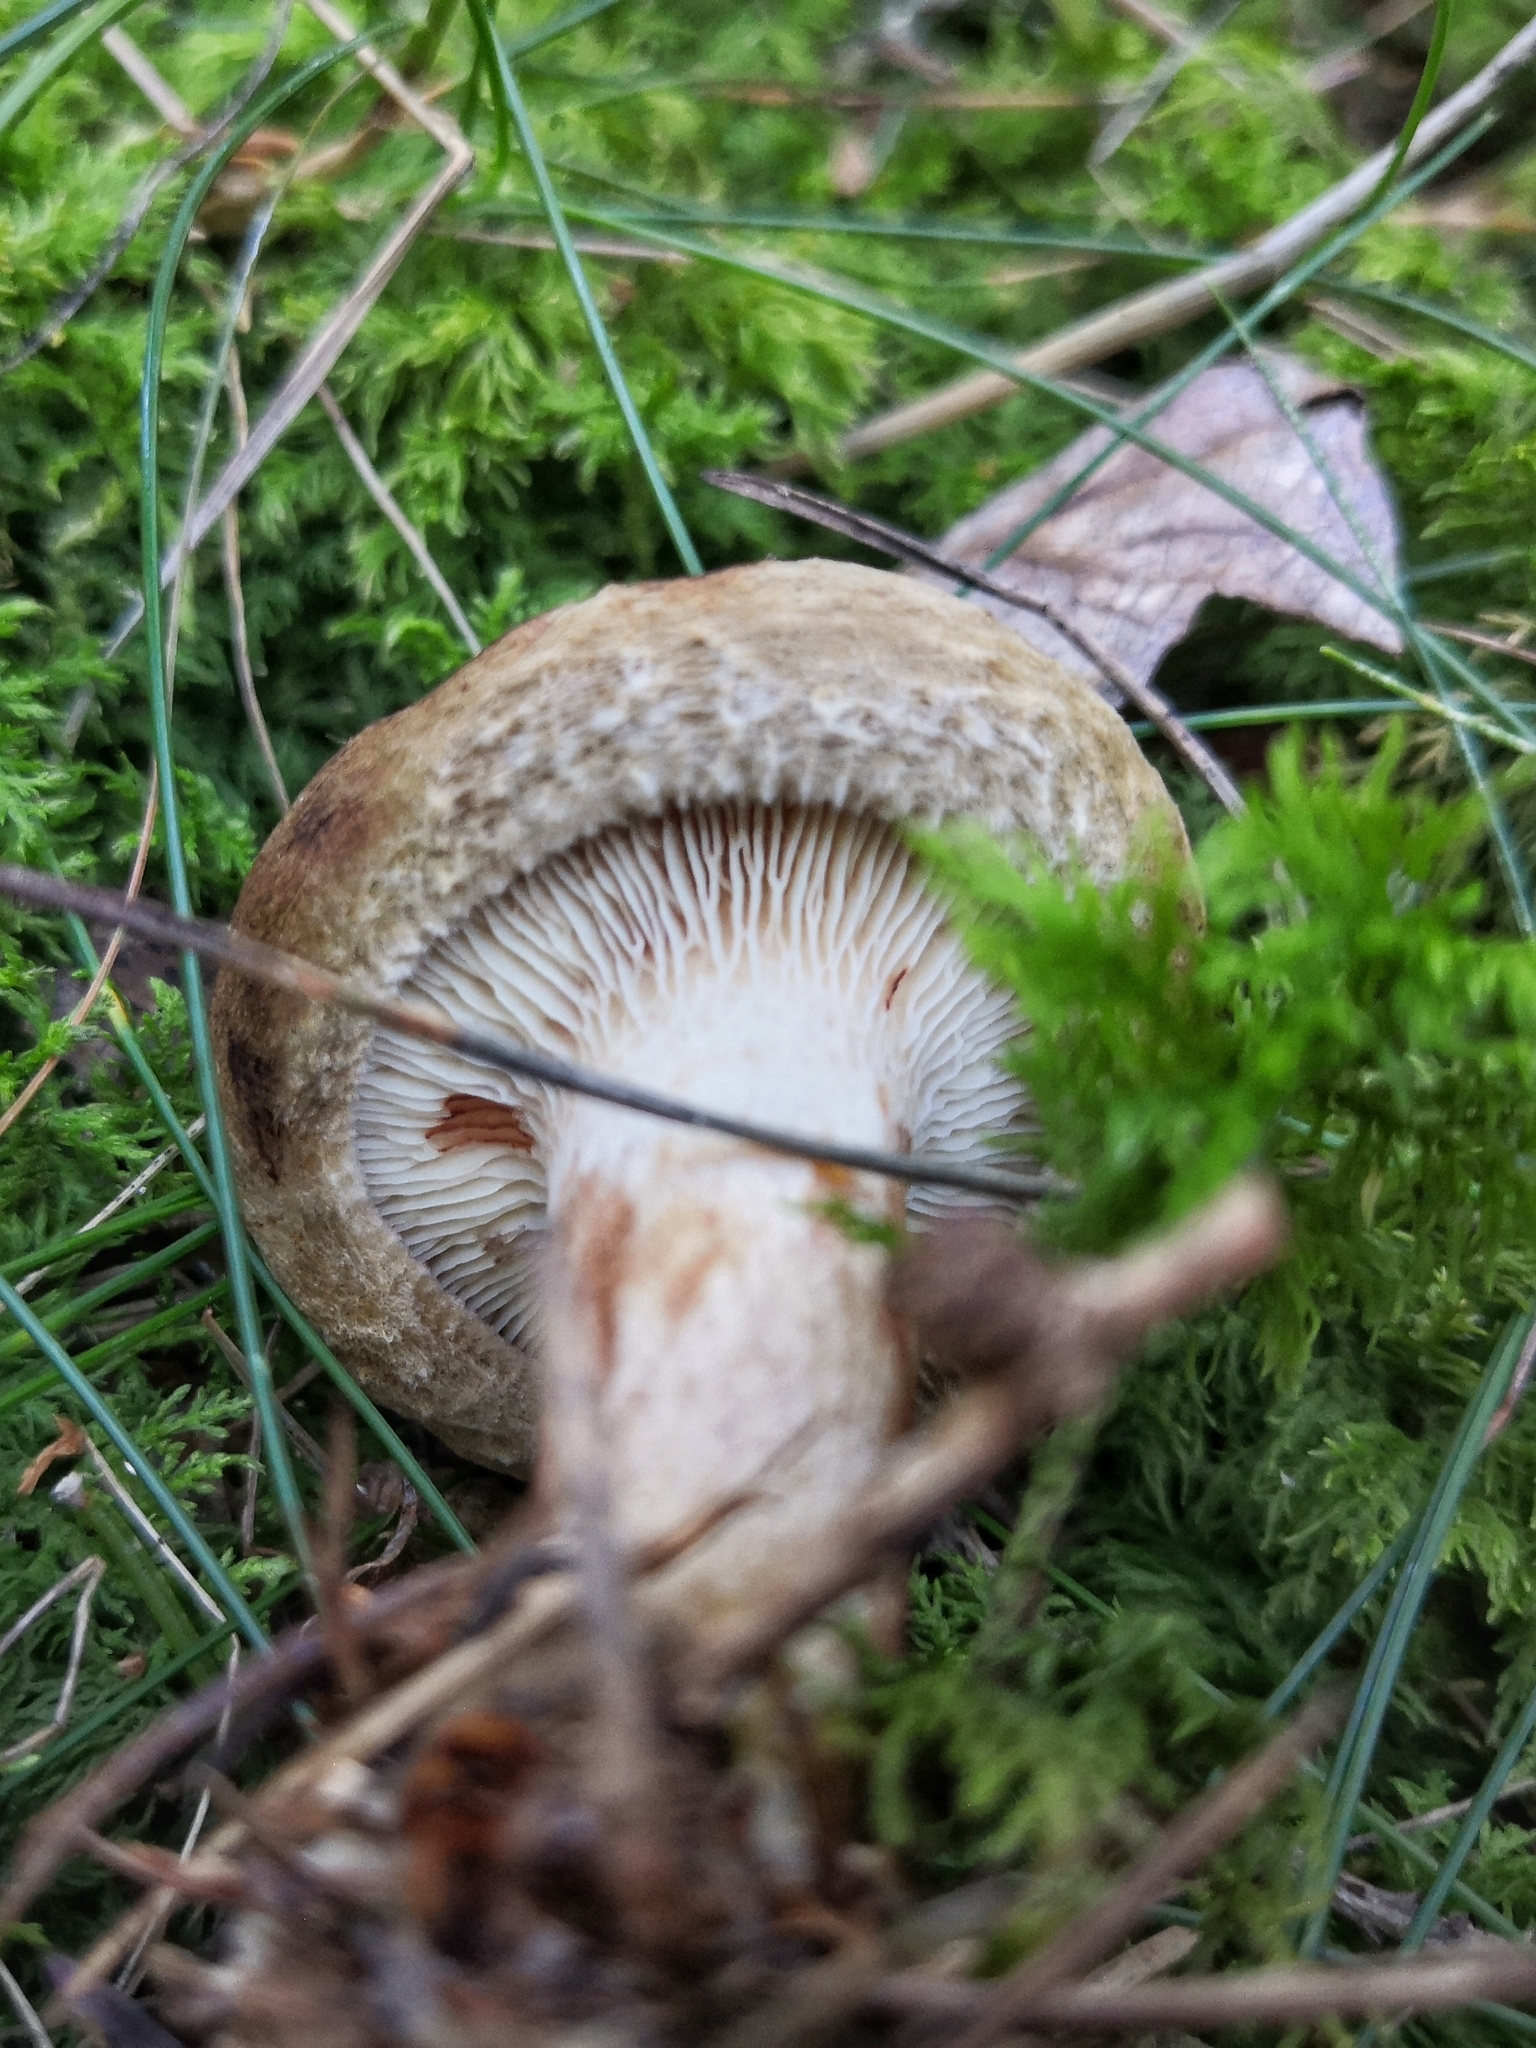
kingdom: Fungi
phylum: Basidiomycota
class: Agaricomycetes
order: Boletales
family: Paxillaceae
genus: Paxillus
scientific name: Paxillus involutus
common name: Brown roll rim
